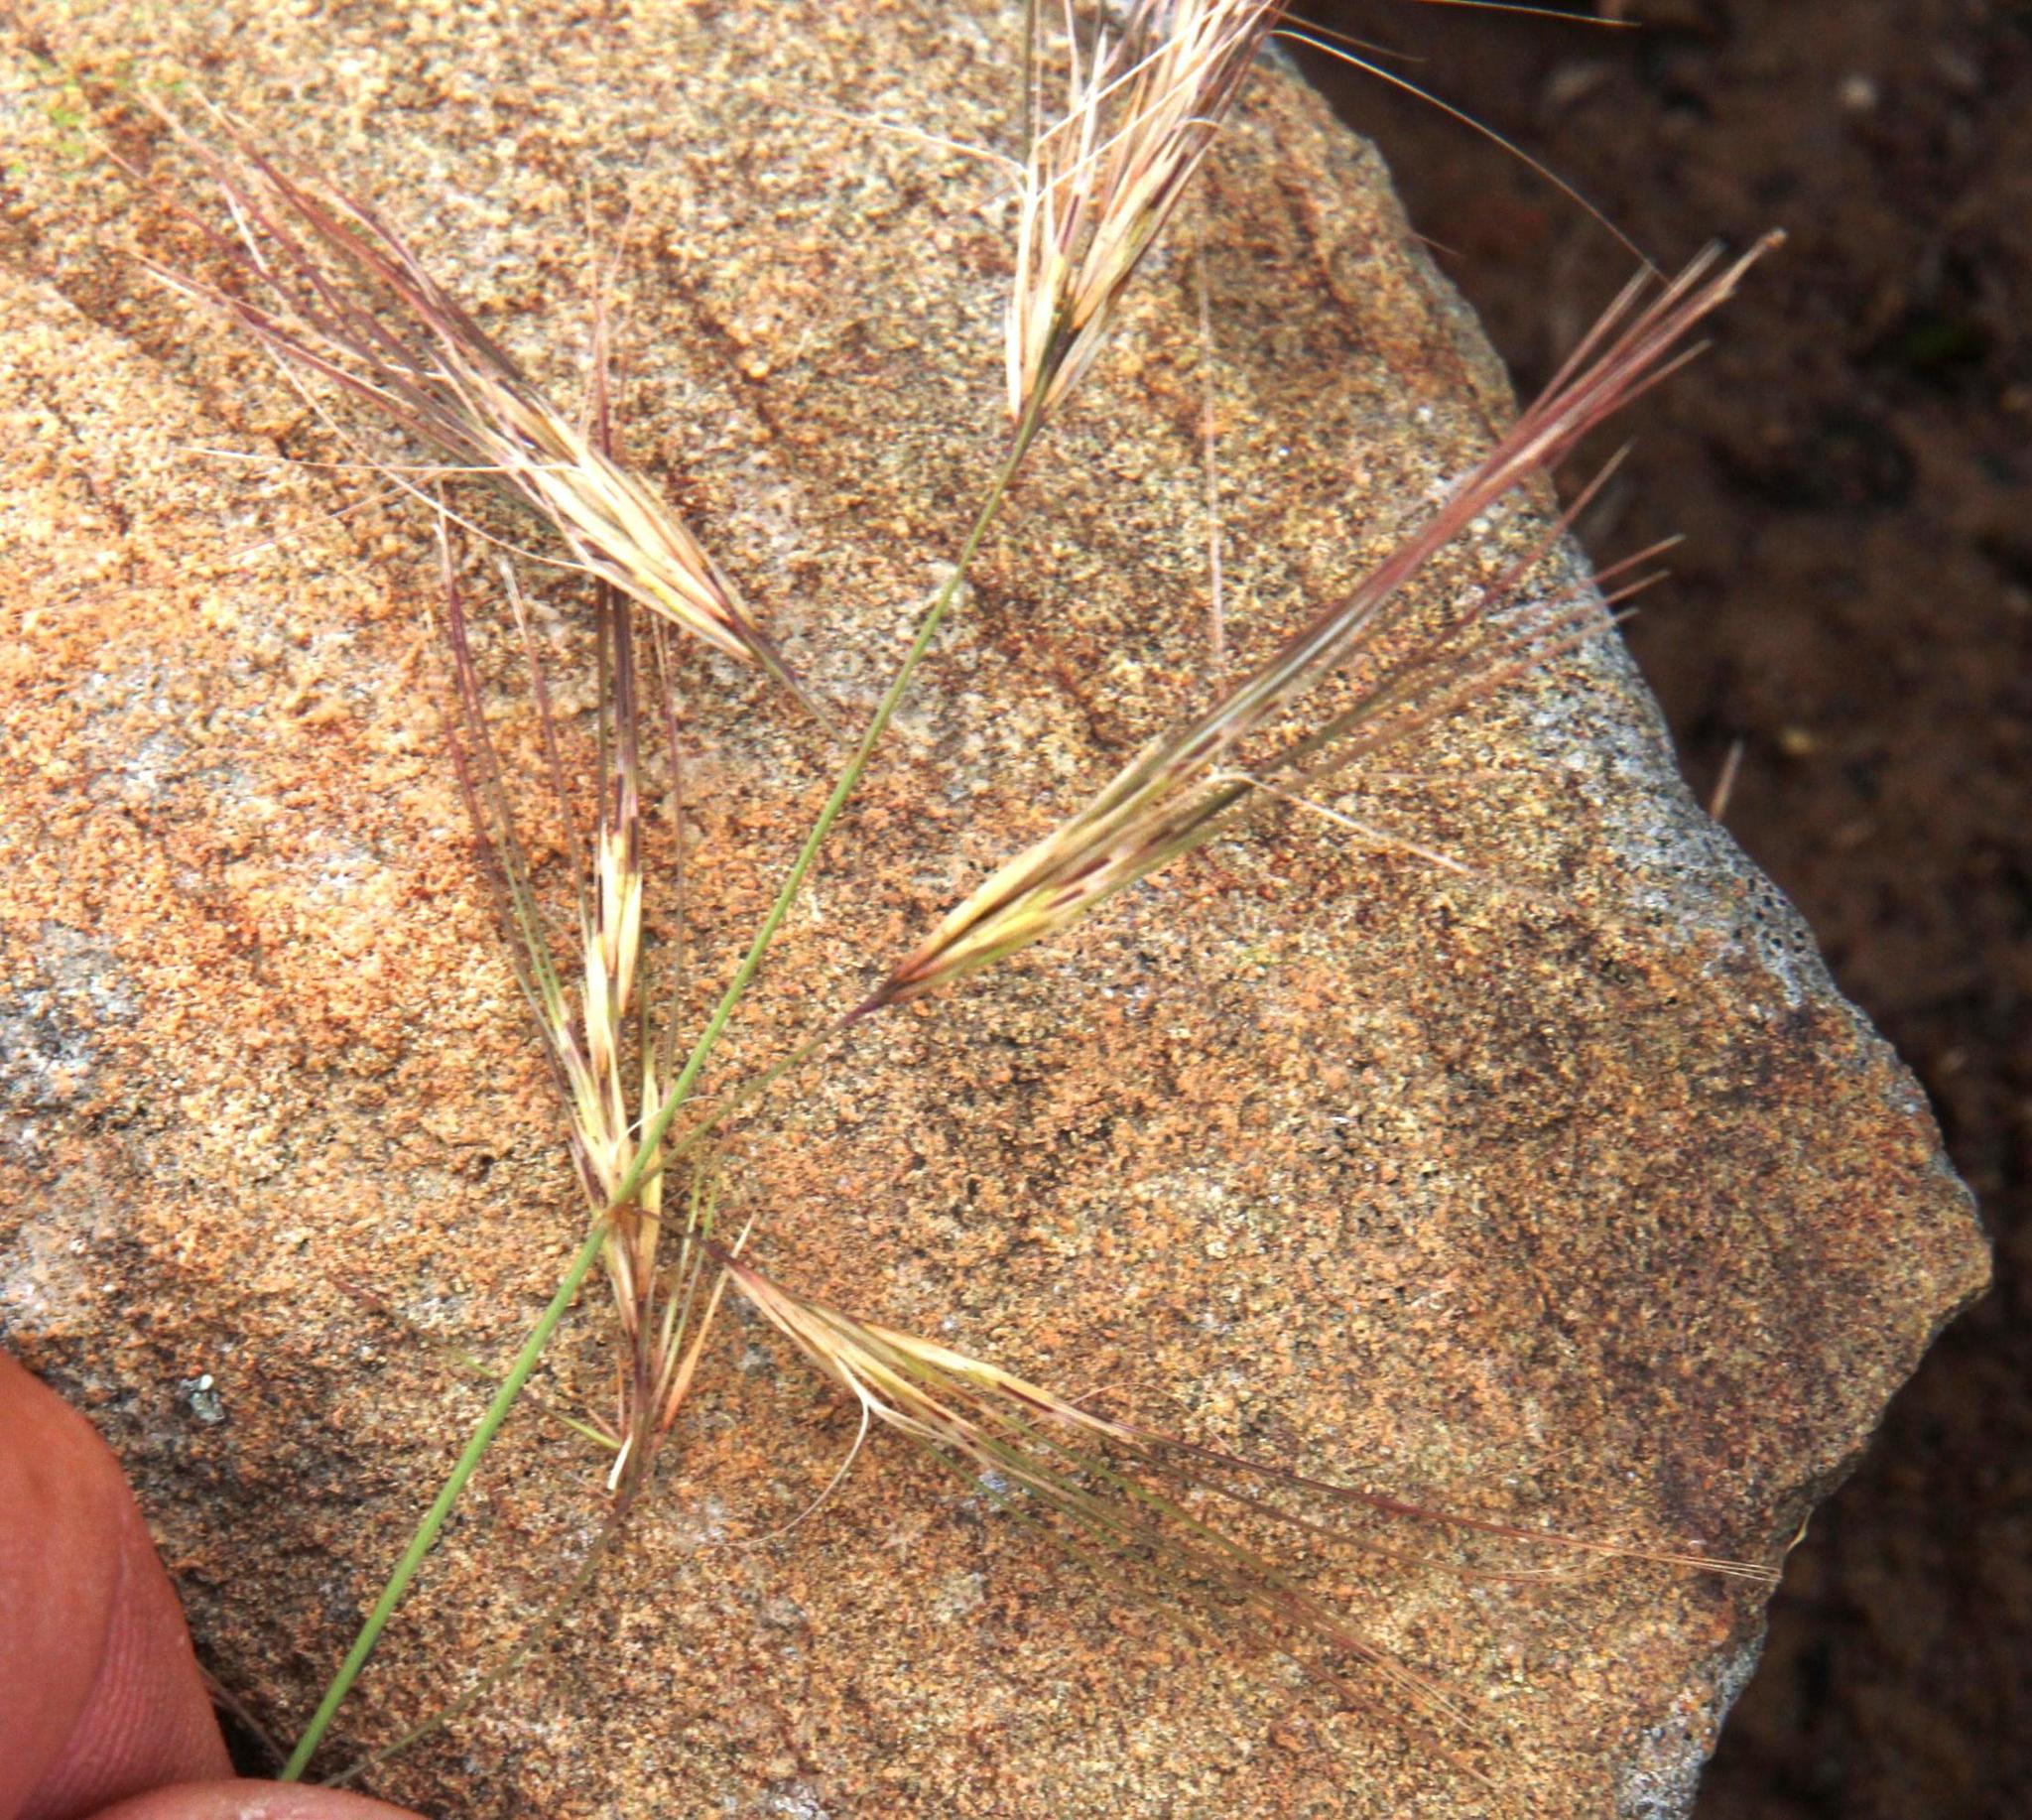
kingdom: Plantae
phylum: Tracheophyta
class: Liliopsida
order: Poales
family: Poaceae
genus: Aristida
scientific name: Aristida barbicollis
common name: Spreading prickle grass
